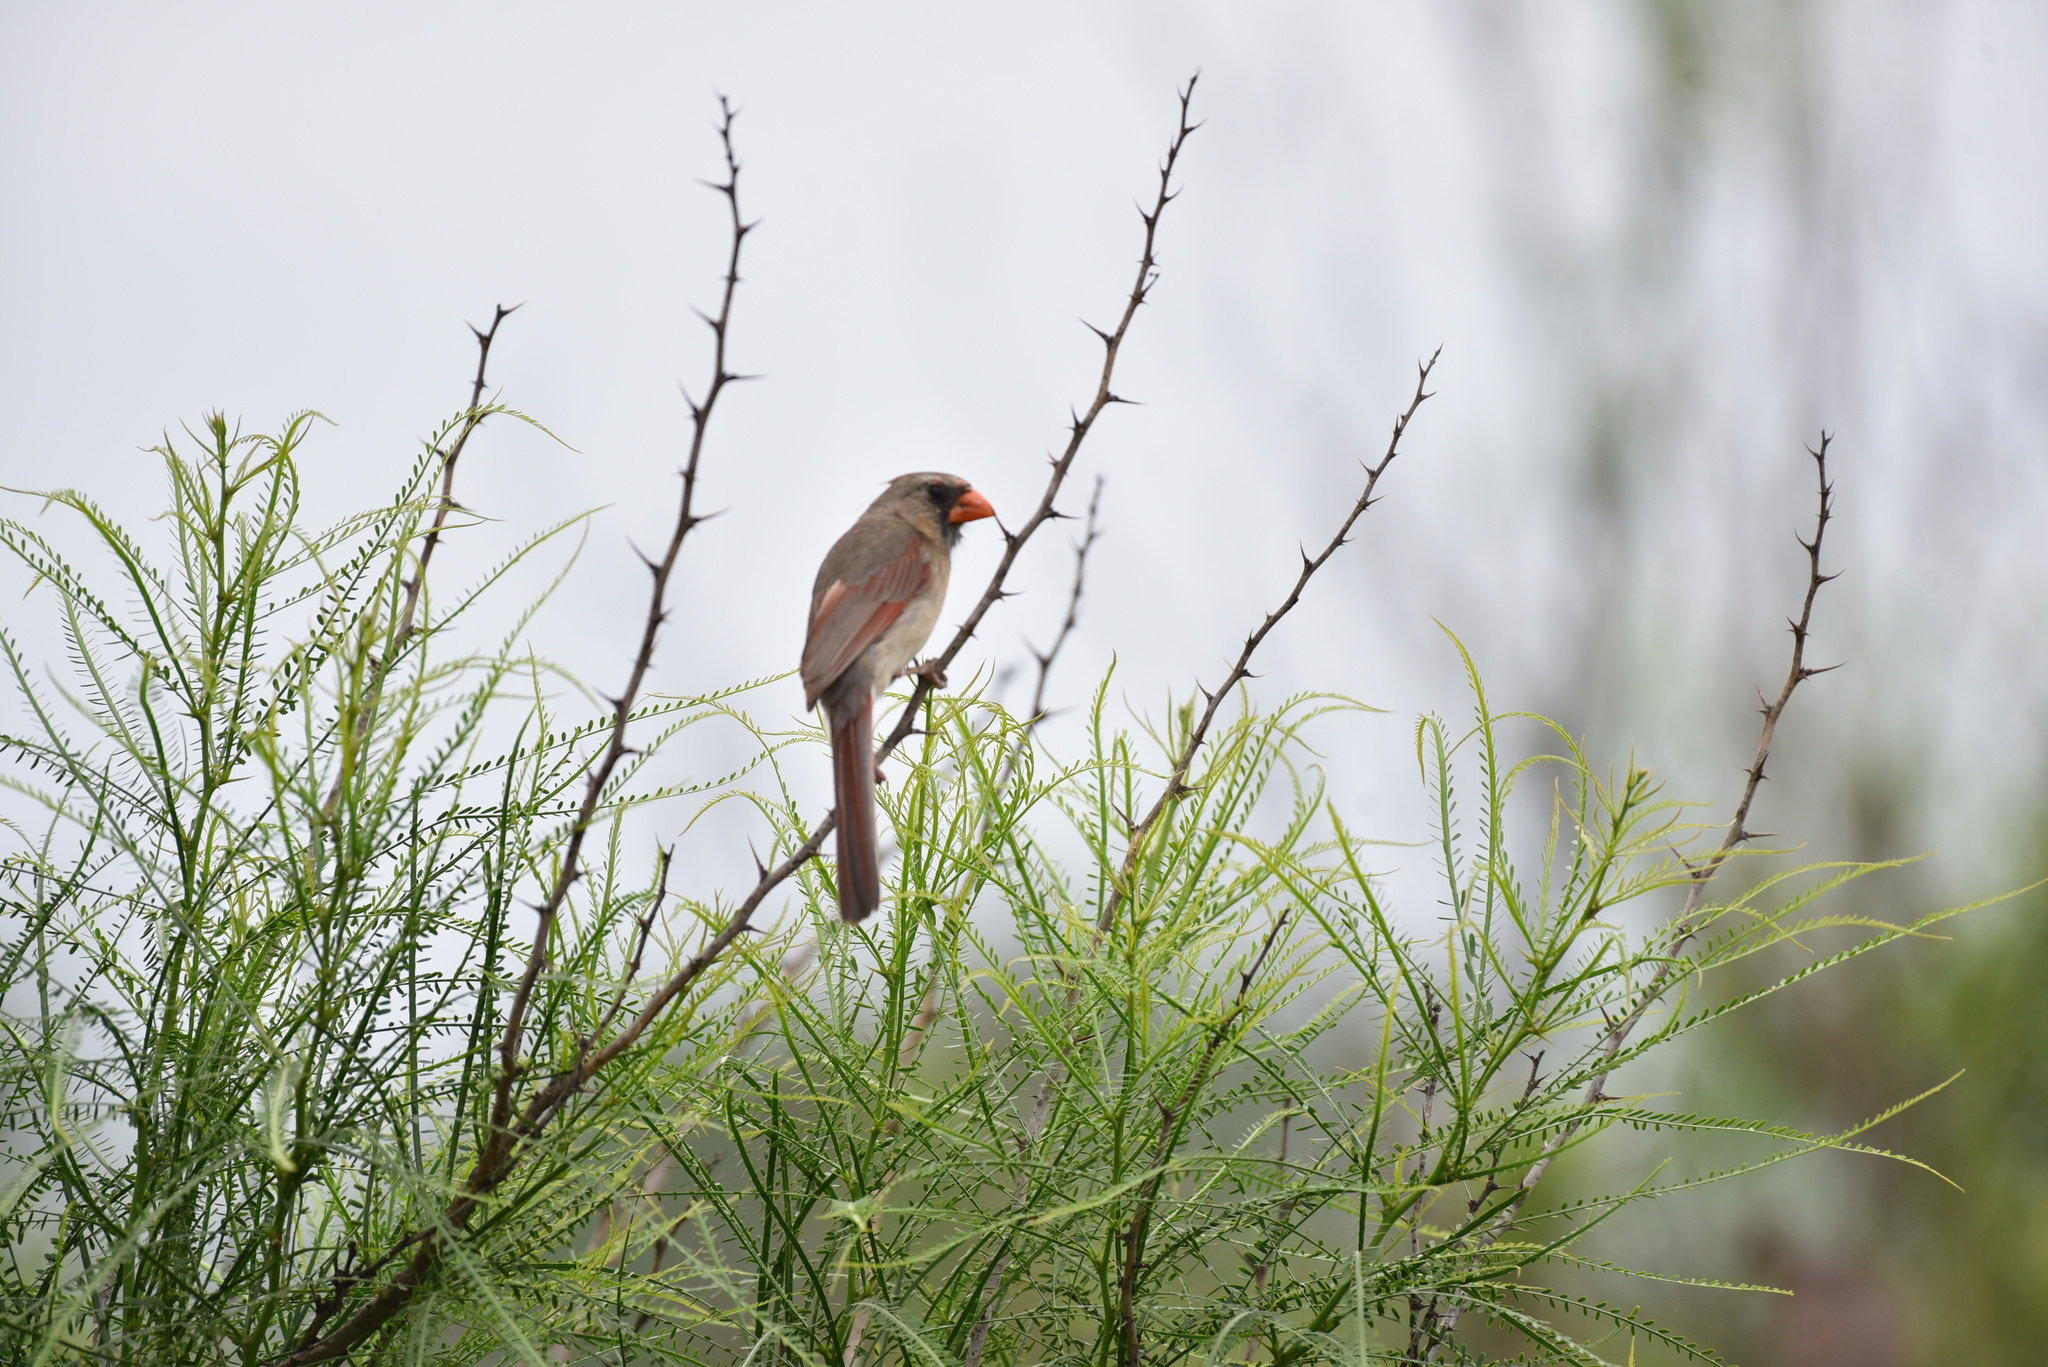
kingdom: Animalia
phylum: Chordata
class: Aves
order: Passeriformes
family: Cardinalidae
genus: Cardinalis
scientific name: Cardinalis cardinalis
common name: Northern cardinal
